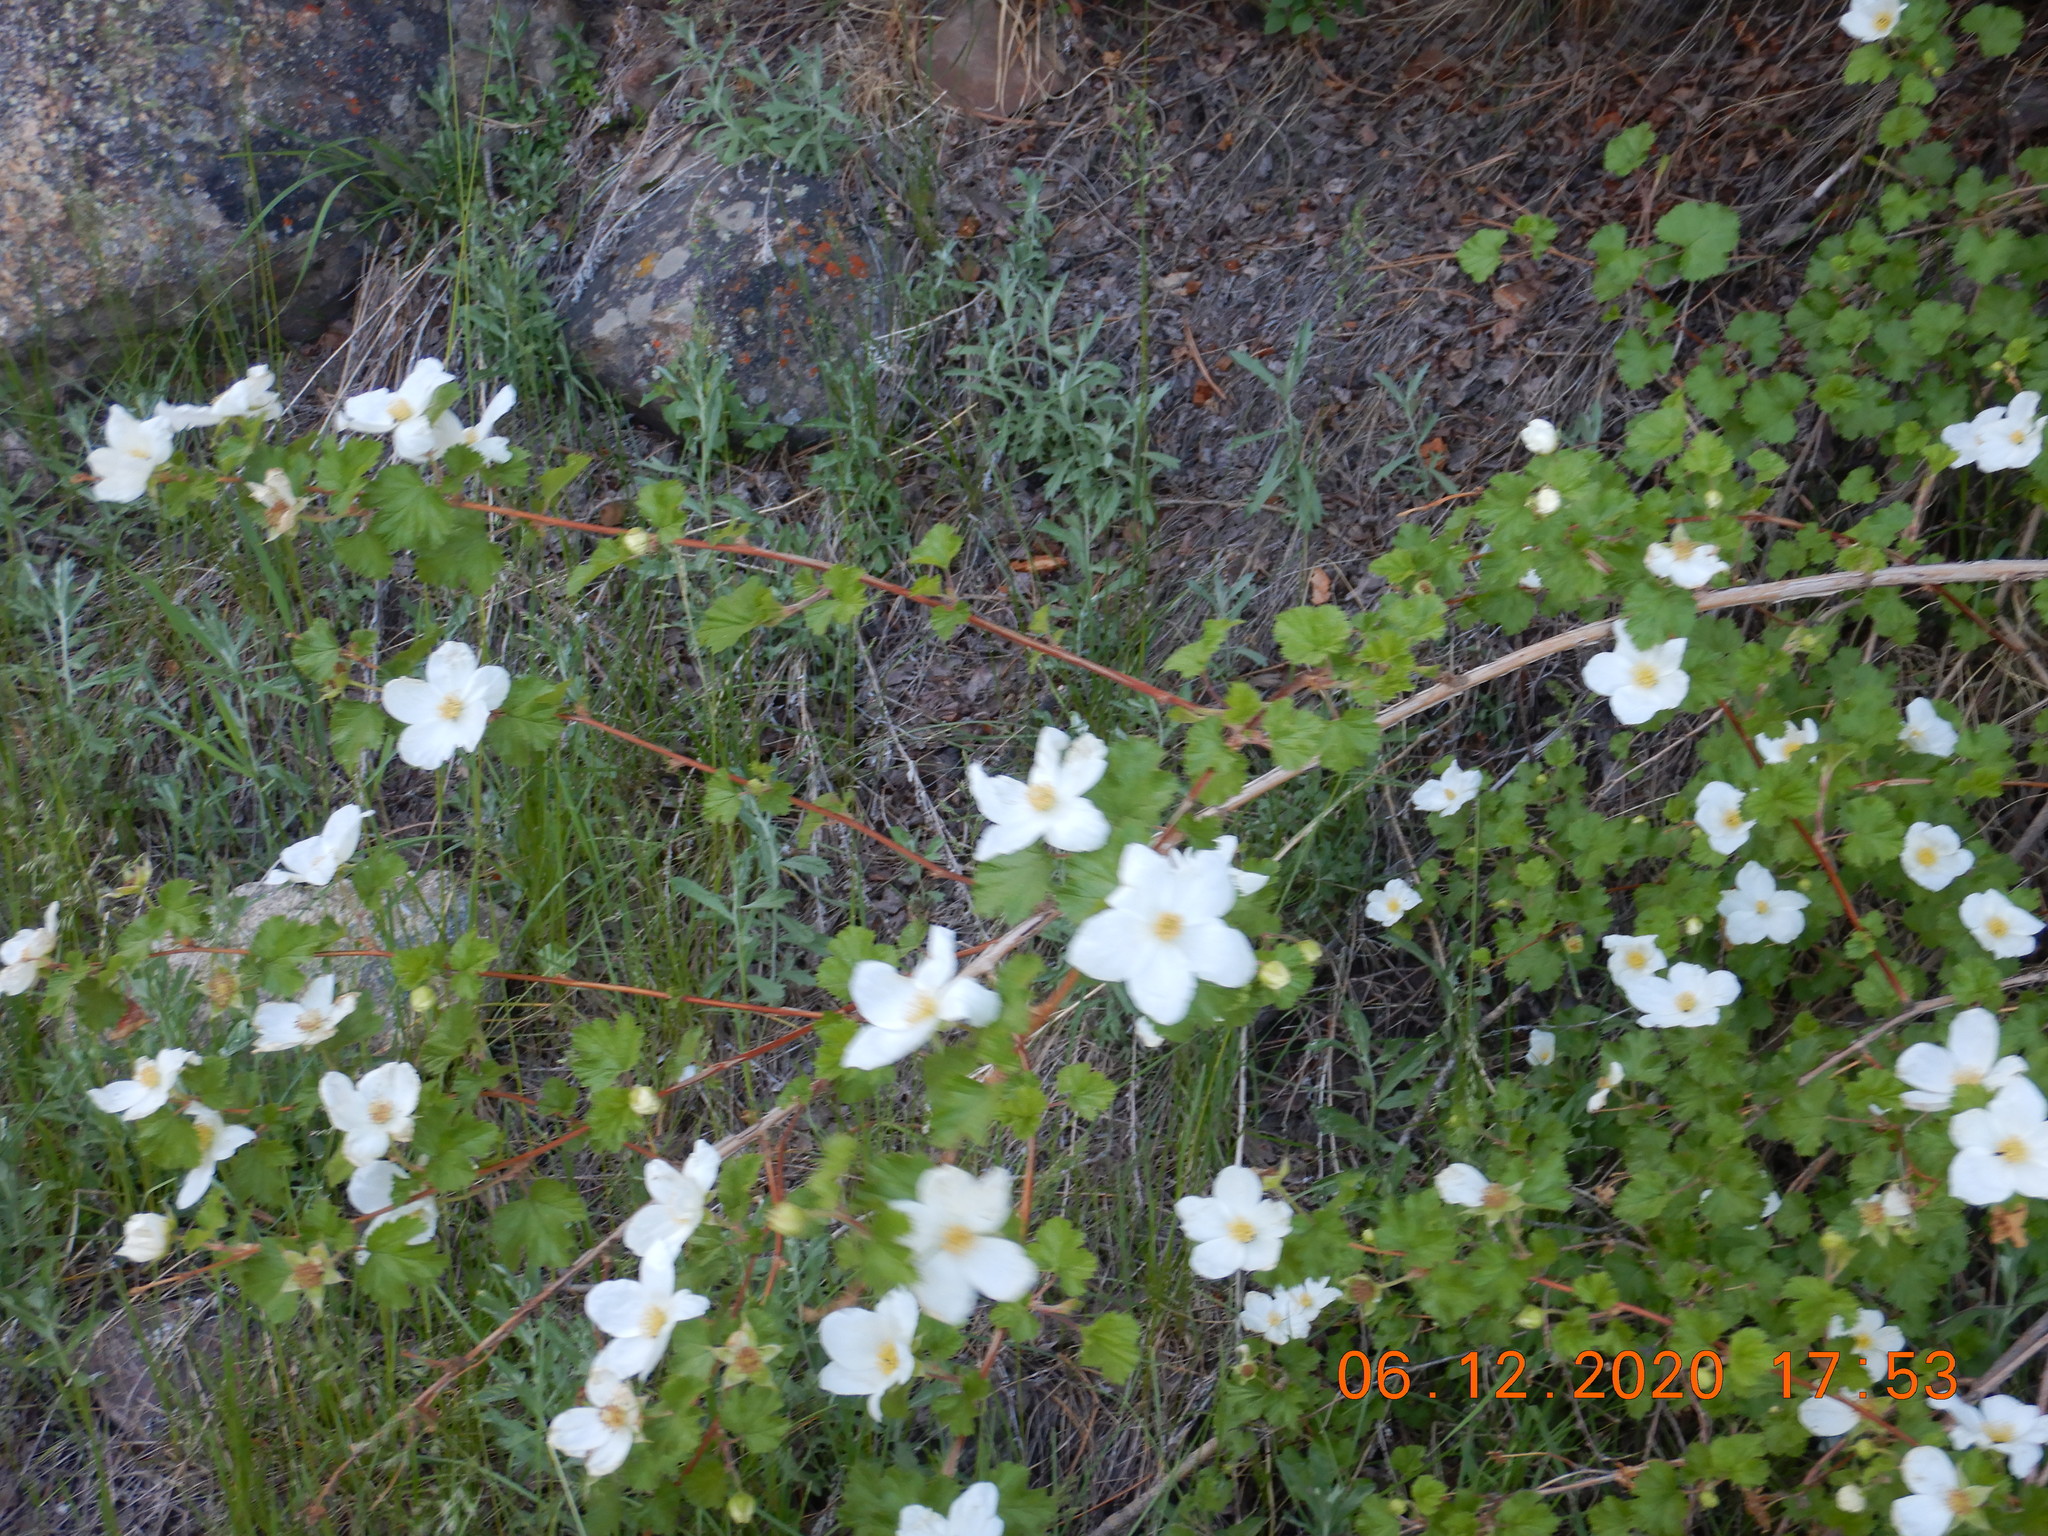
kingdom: Plantae
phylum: Tracheophyta
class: Magnoliopsida
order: Rosales
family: Rosaceae
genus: Rubus
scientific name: Rubus deliciosus
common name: Rocky mountain raspberry
